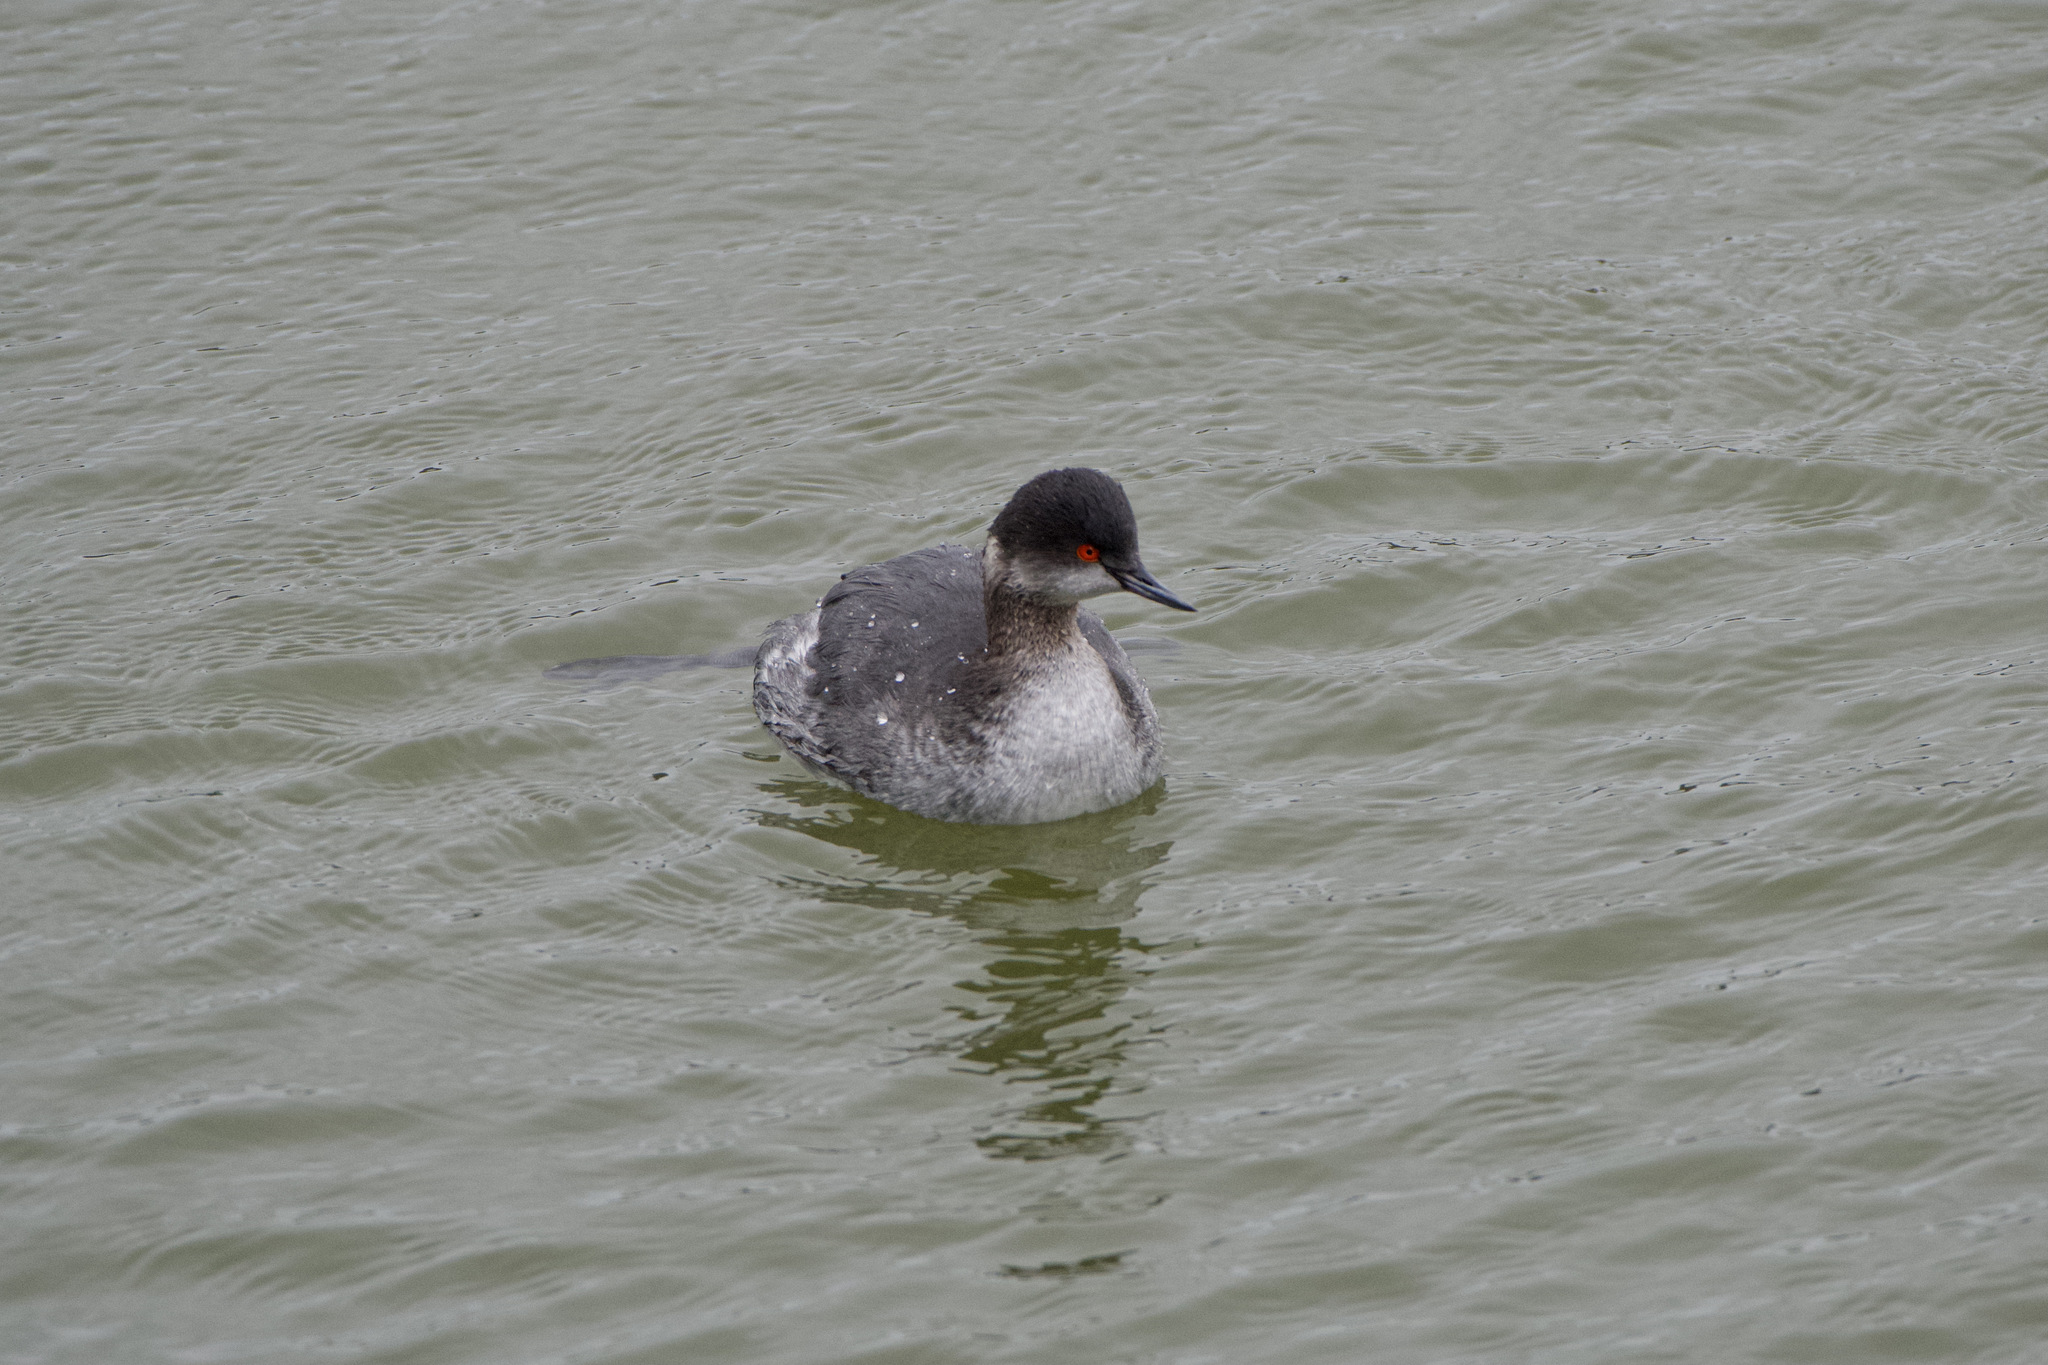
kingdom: Animalia
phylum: Chordata
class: Aves
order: Podicipediformes
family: Podicipedidae
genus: Podiceps
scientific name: Podiceps nigricollis
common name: Black-necked grebe
